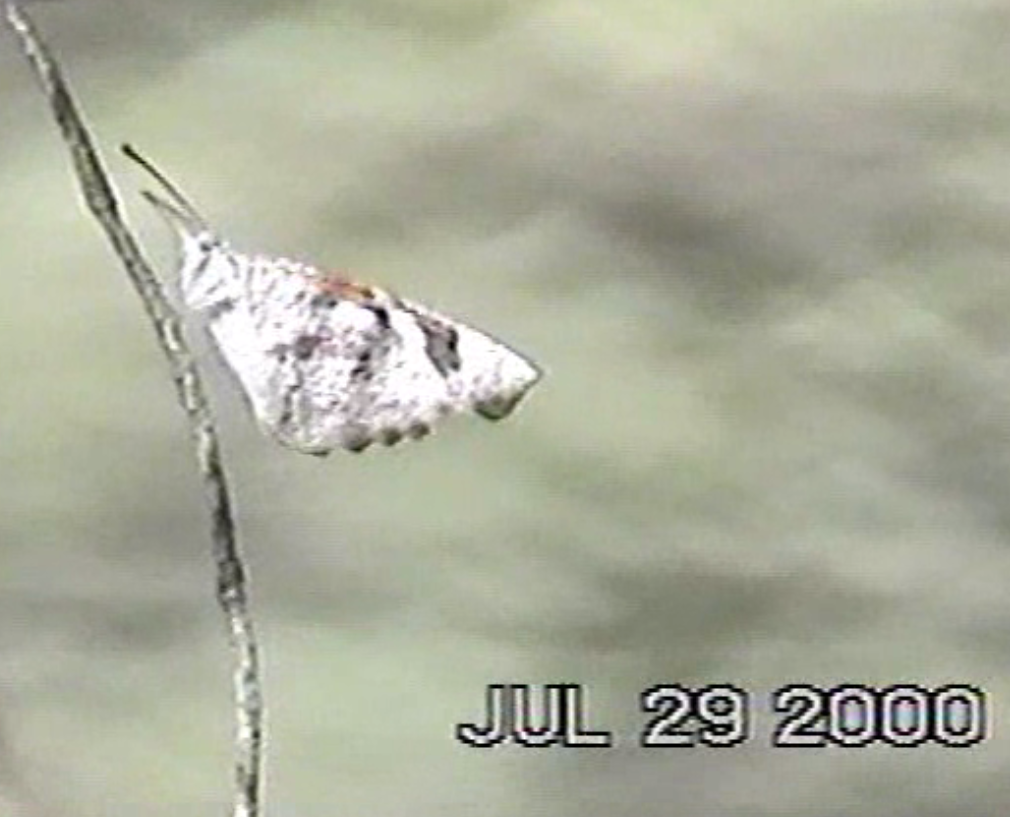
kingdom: Animalia
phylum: Arthropoda
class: Insecta
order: Lepidoptera
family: Nymphalidae
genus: Libytheana
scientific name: Libytheana carinenta
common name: American snout
